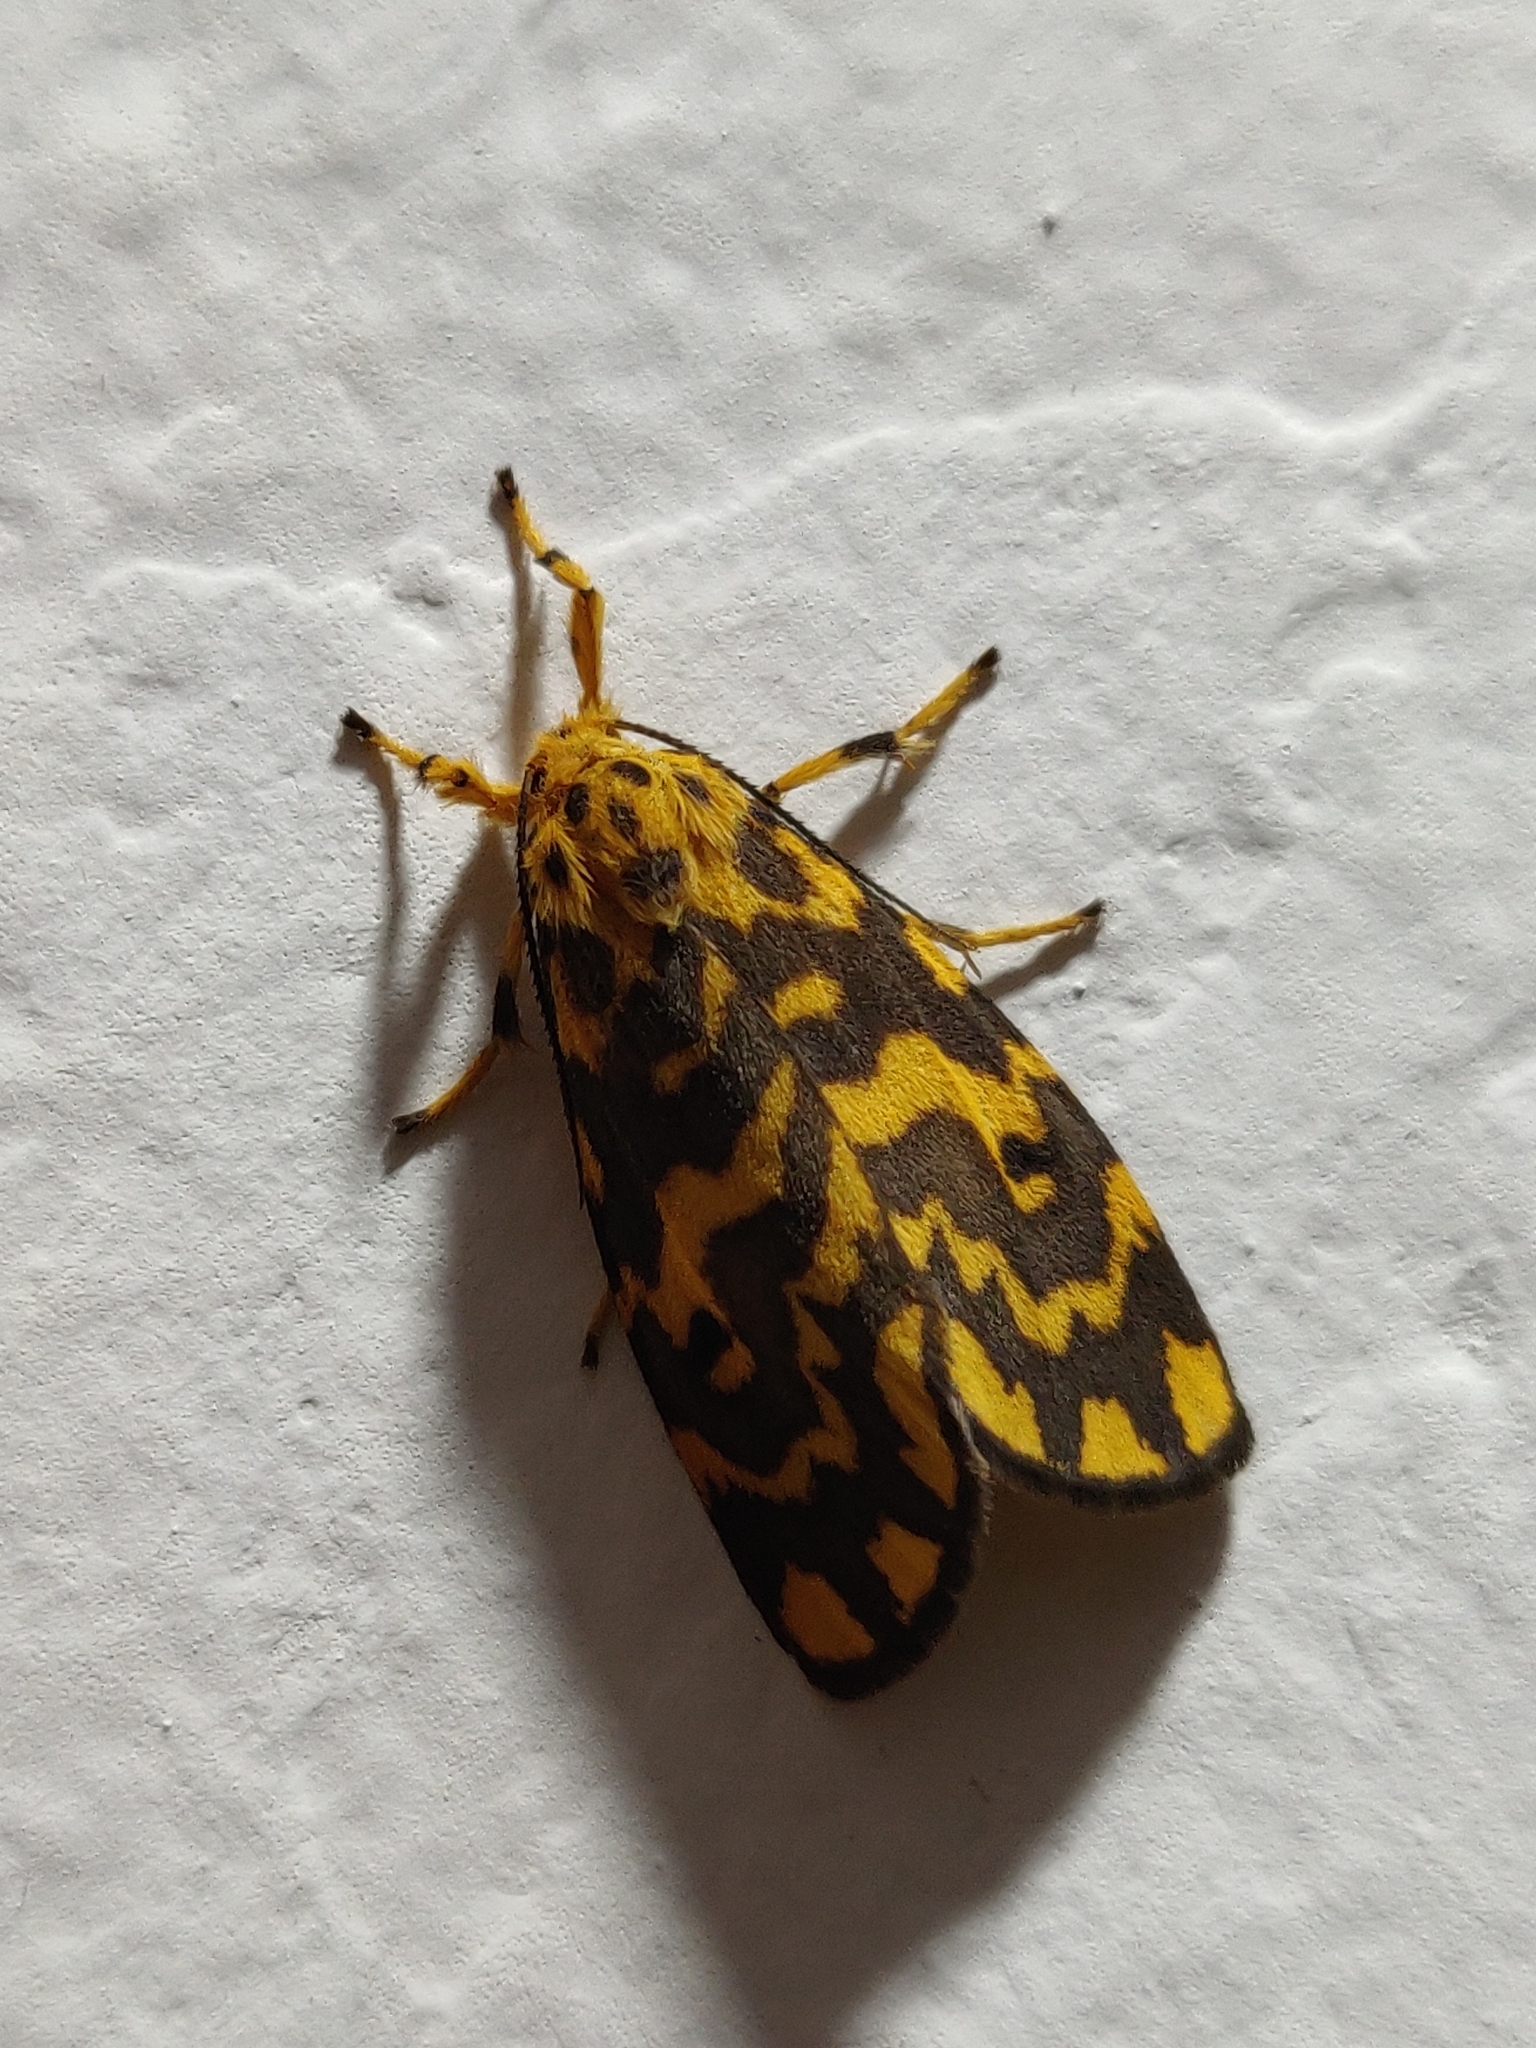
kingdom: Animalia
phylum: Arthropoda
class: Insecta
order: Lepidoptera
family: Erebidae
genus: Nepita
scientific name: Nepita conferta
